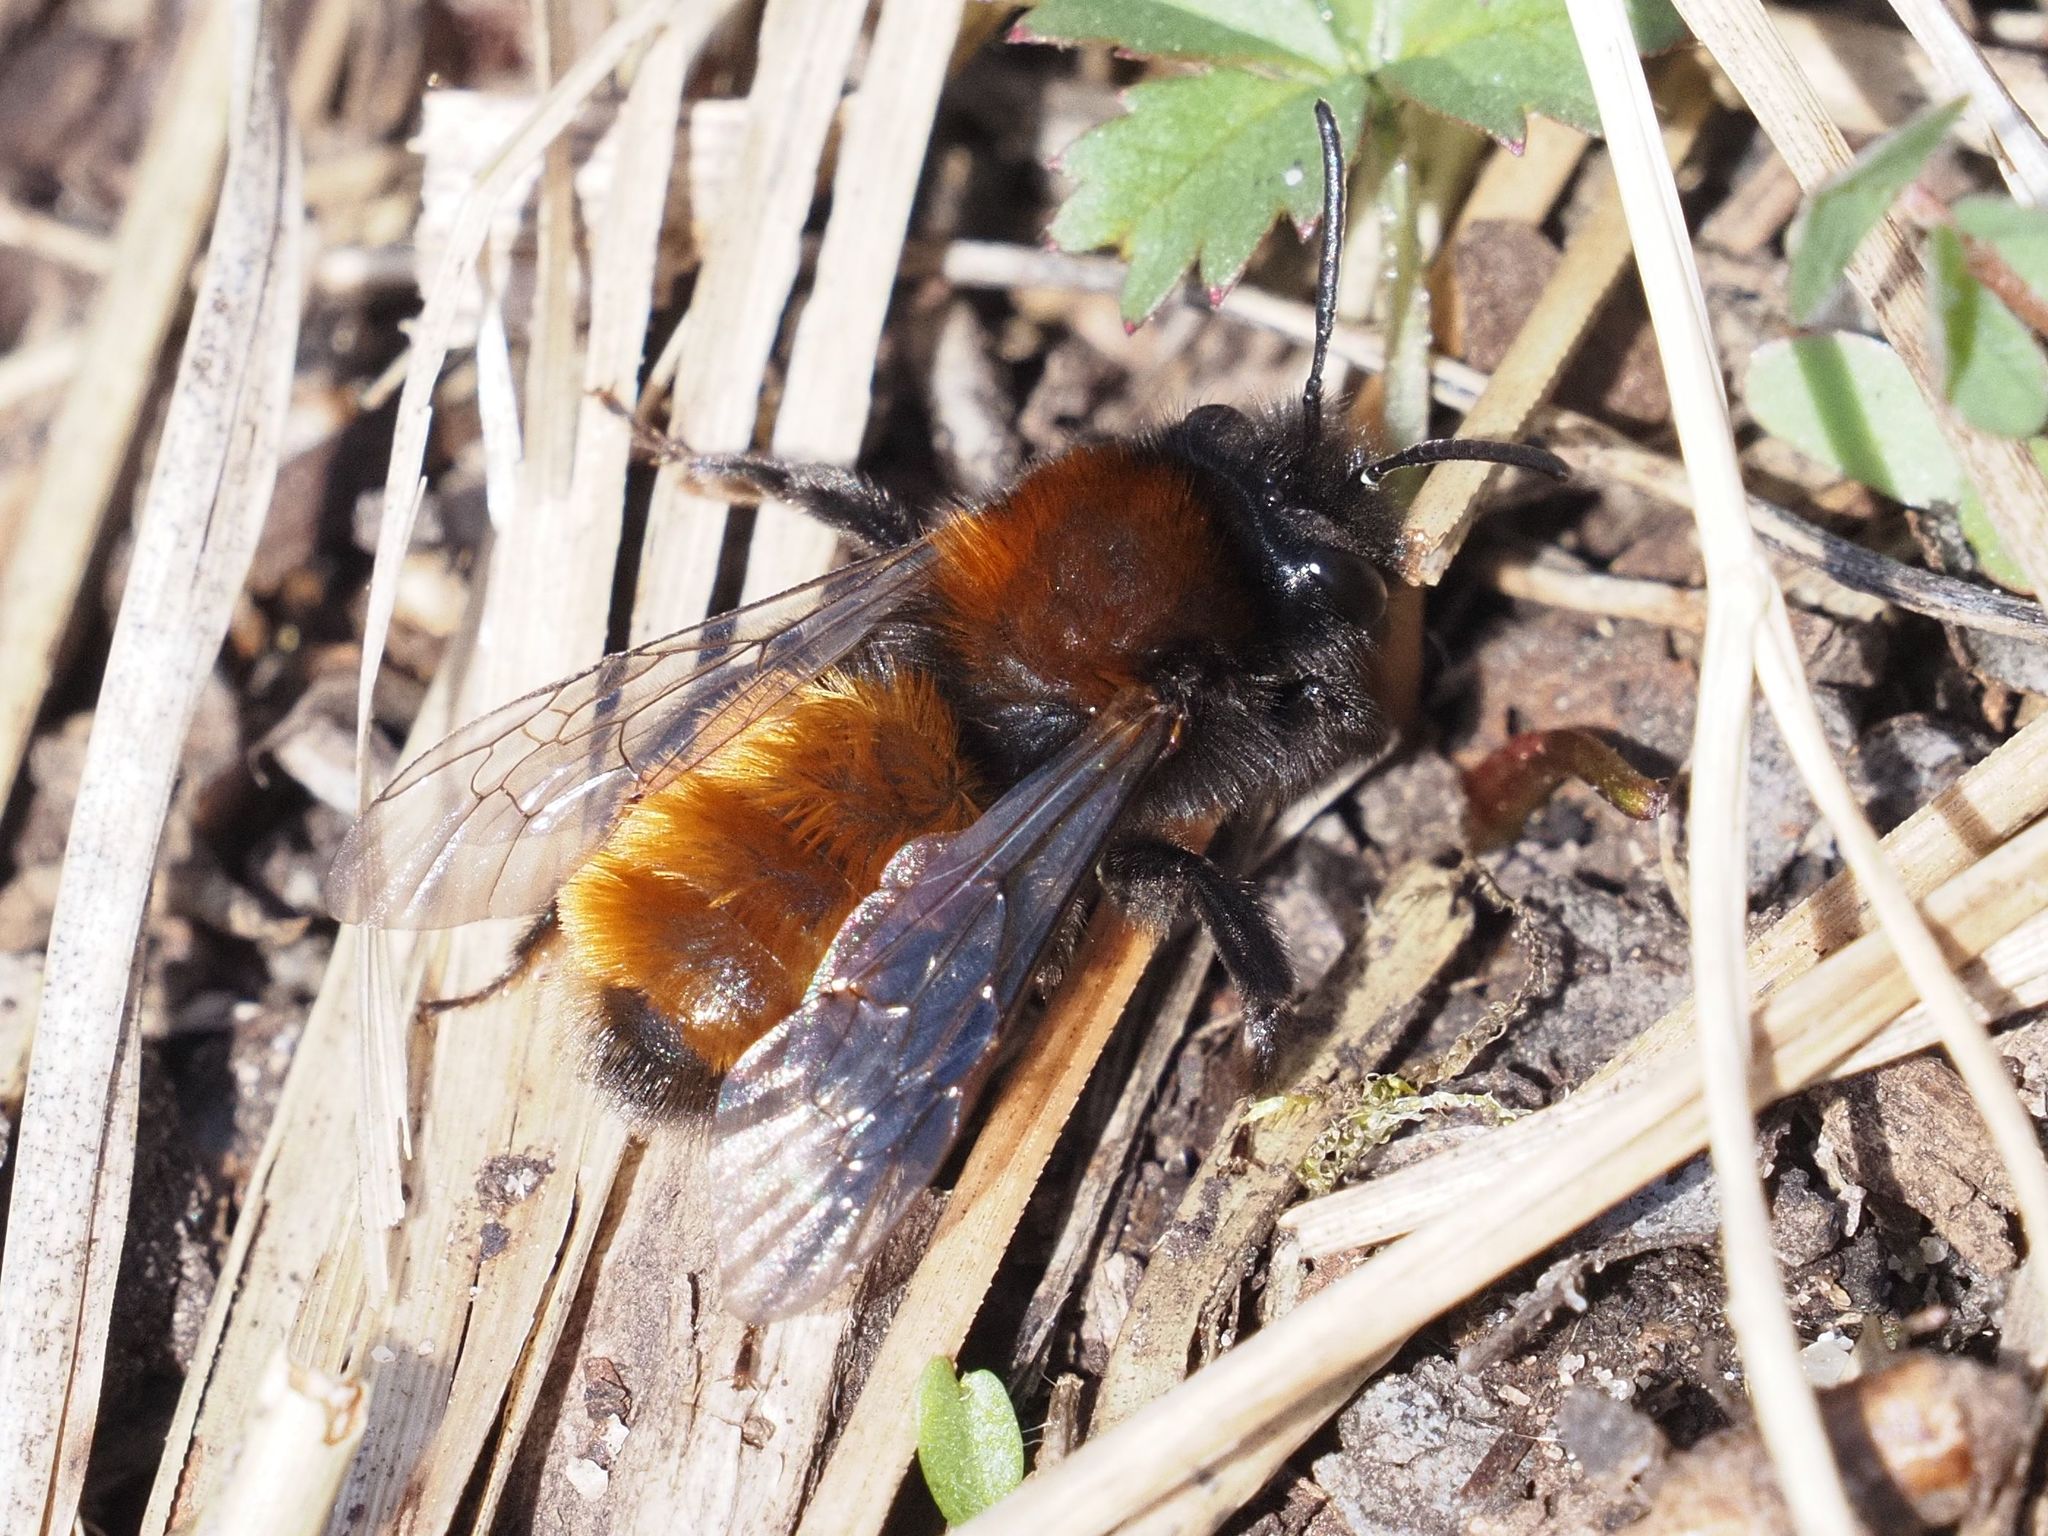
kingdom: Animalia
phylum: Arthropoda
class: Insecta
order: Hymenoptera
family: Andrenidae
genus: Andrena
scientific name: Andrena fulva
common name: Tawny mining bee
